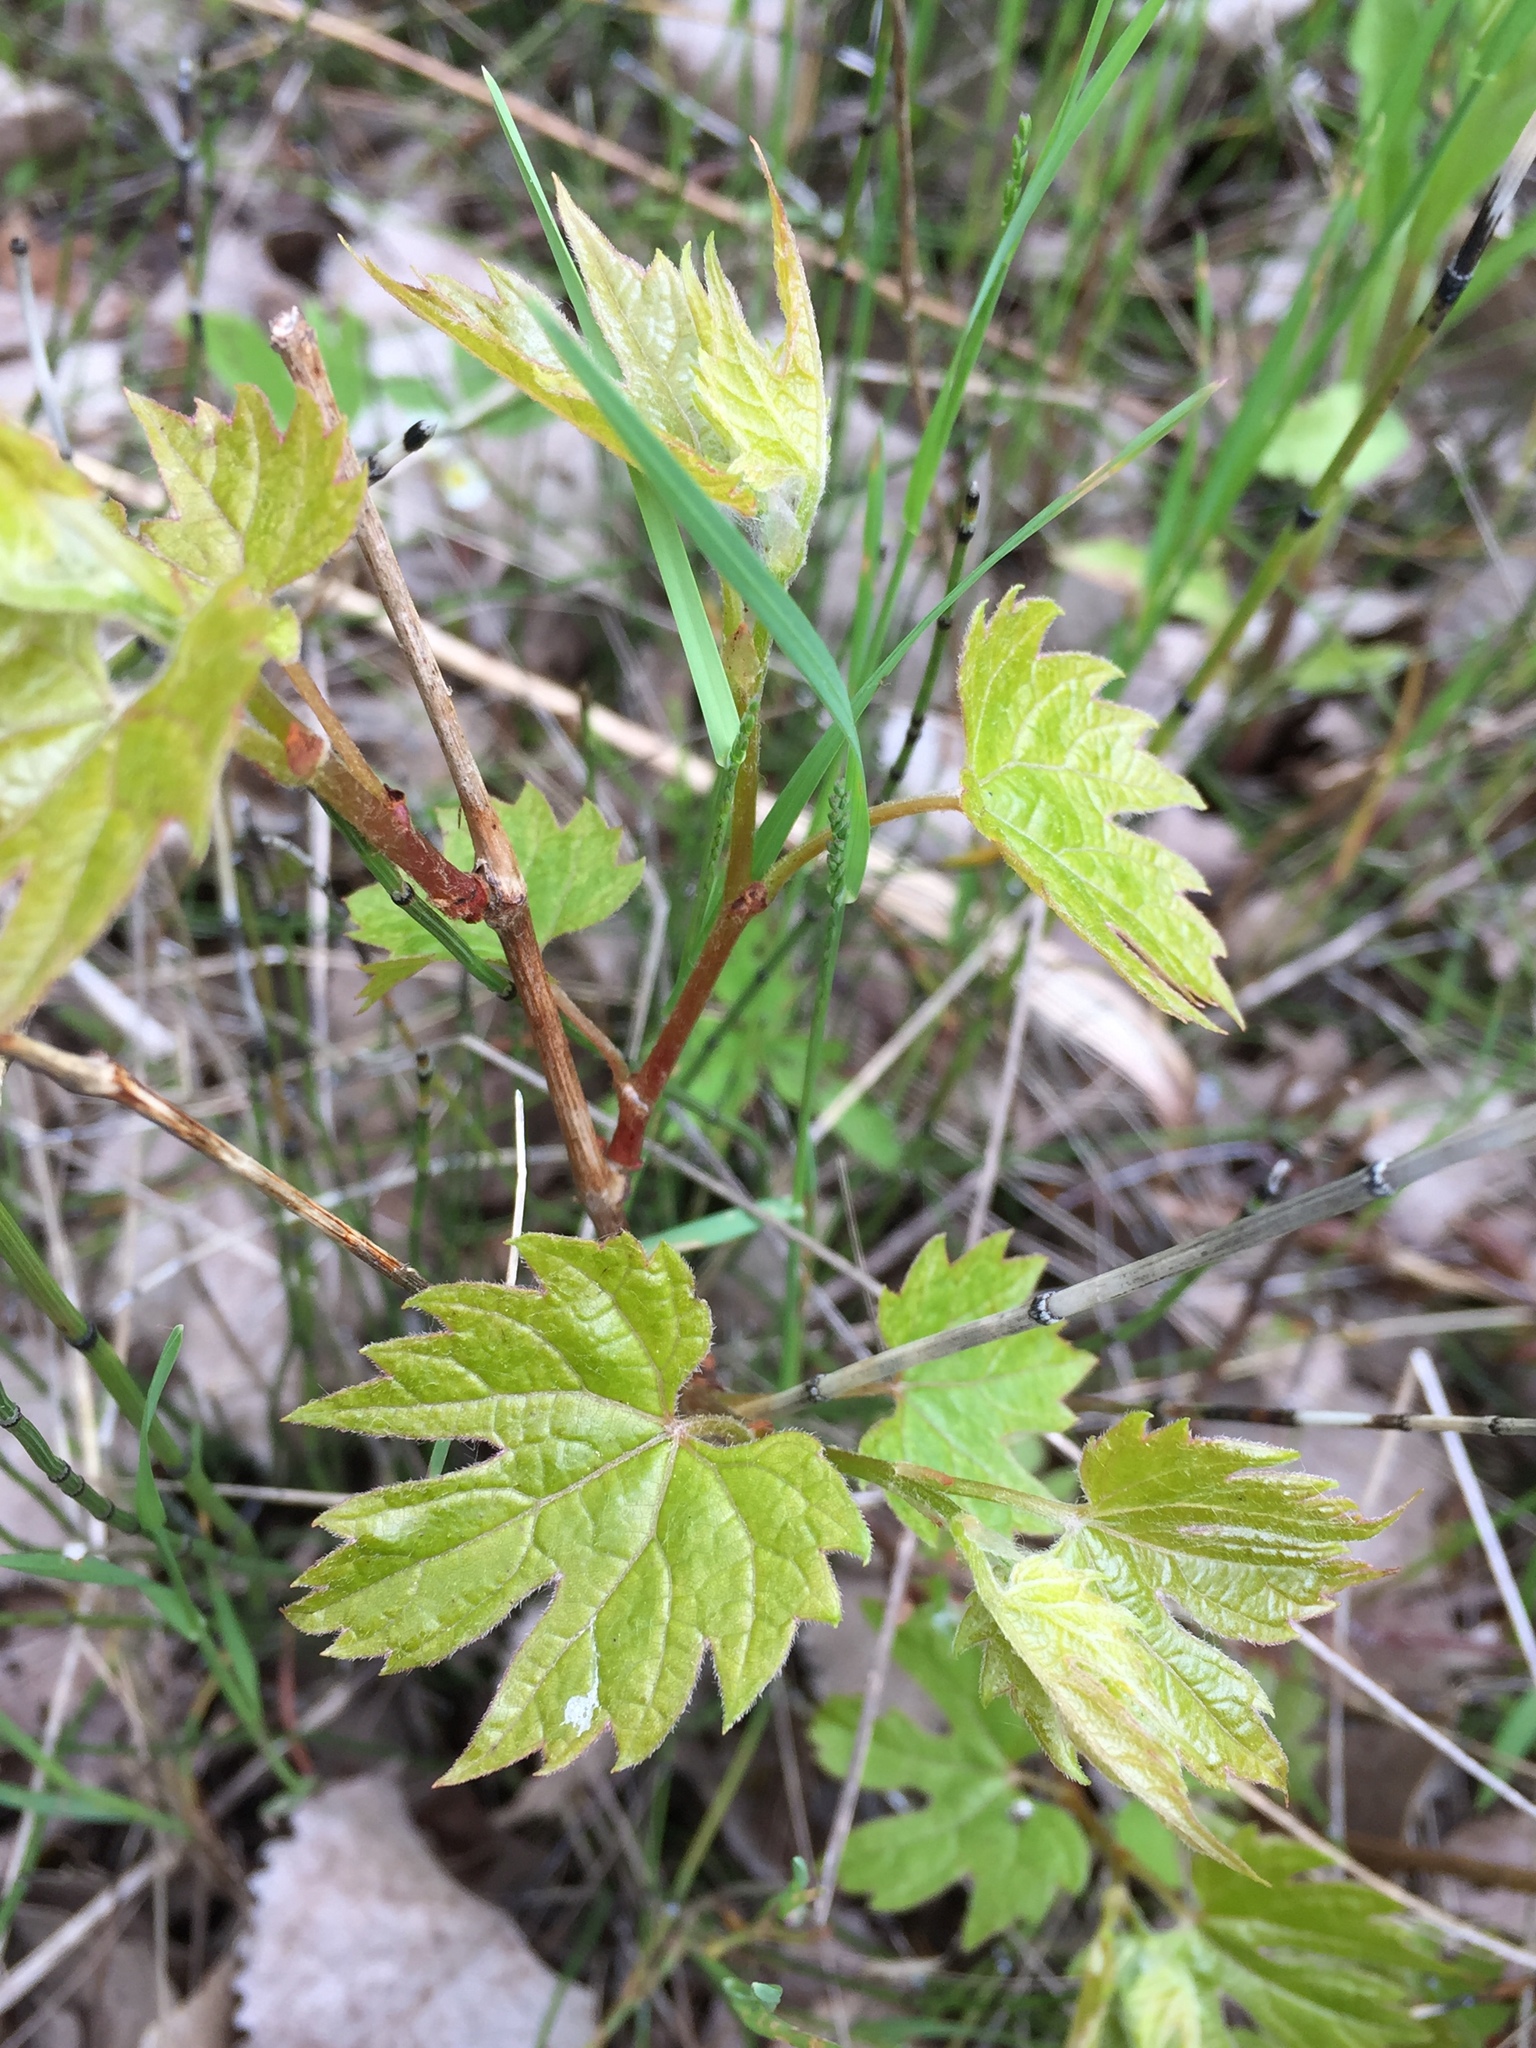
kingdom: Plantae
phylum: Tracheophyta
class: Magnoliopsida
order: Vitales
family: Vitaceae
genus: Vitis
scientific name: Vitis riparia
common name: Frost grape
